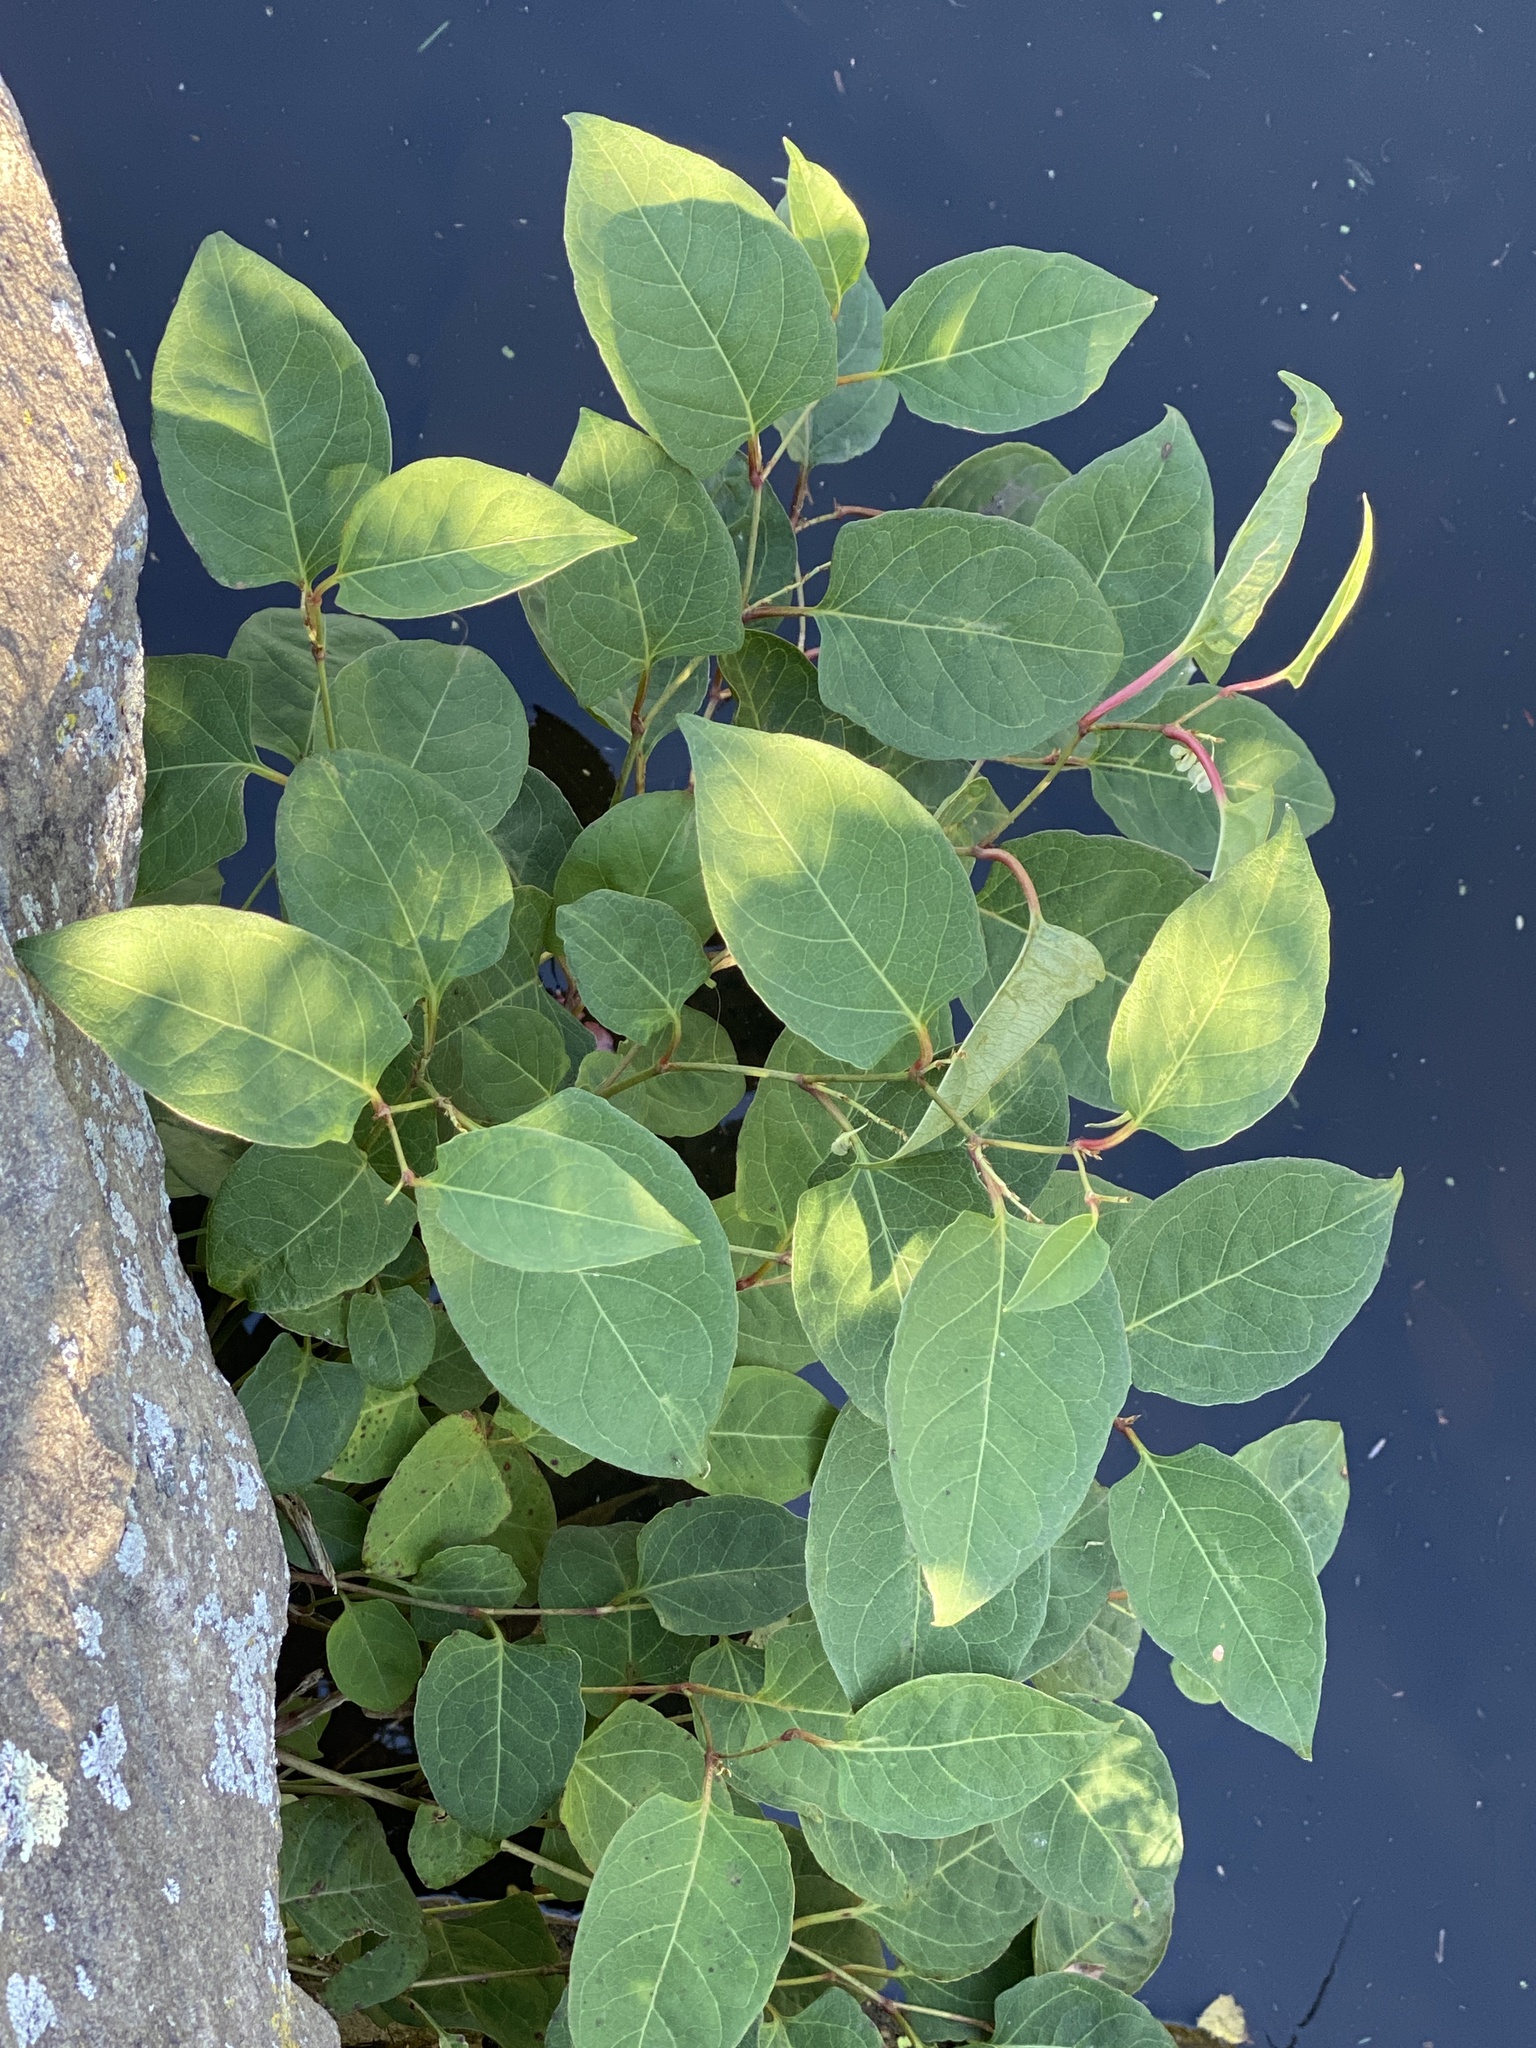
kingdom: Plantae
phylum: Tracheophyta
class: Magnoliopsida
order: Caryophyllales
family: Polygonaceae
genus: Reynoutria
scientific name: Reynoutria japonica
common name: Japanese knotweed
